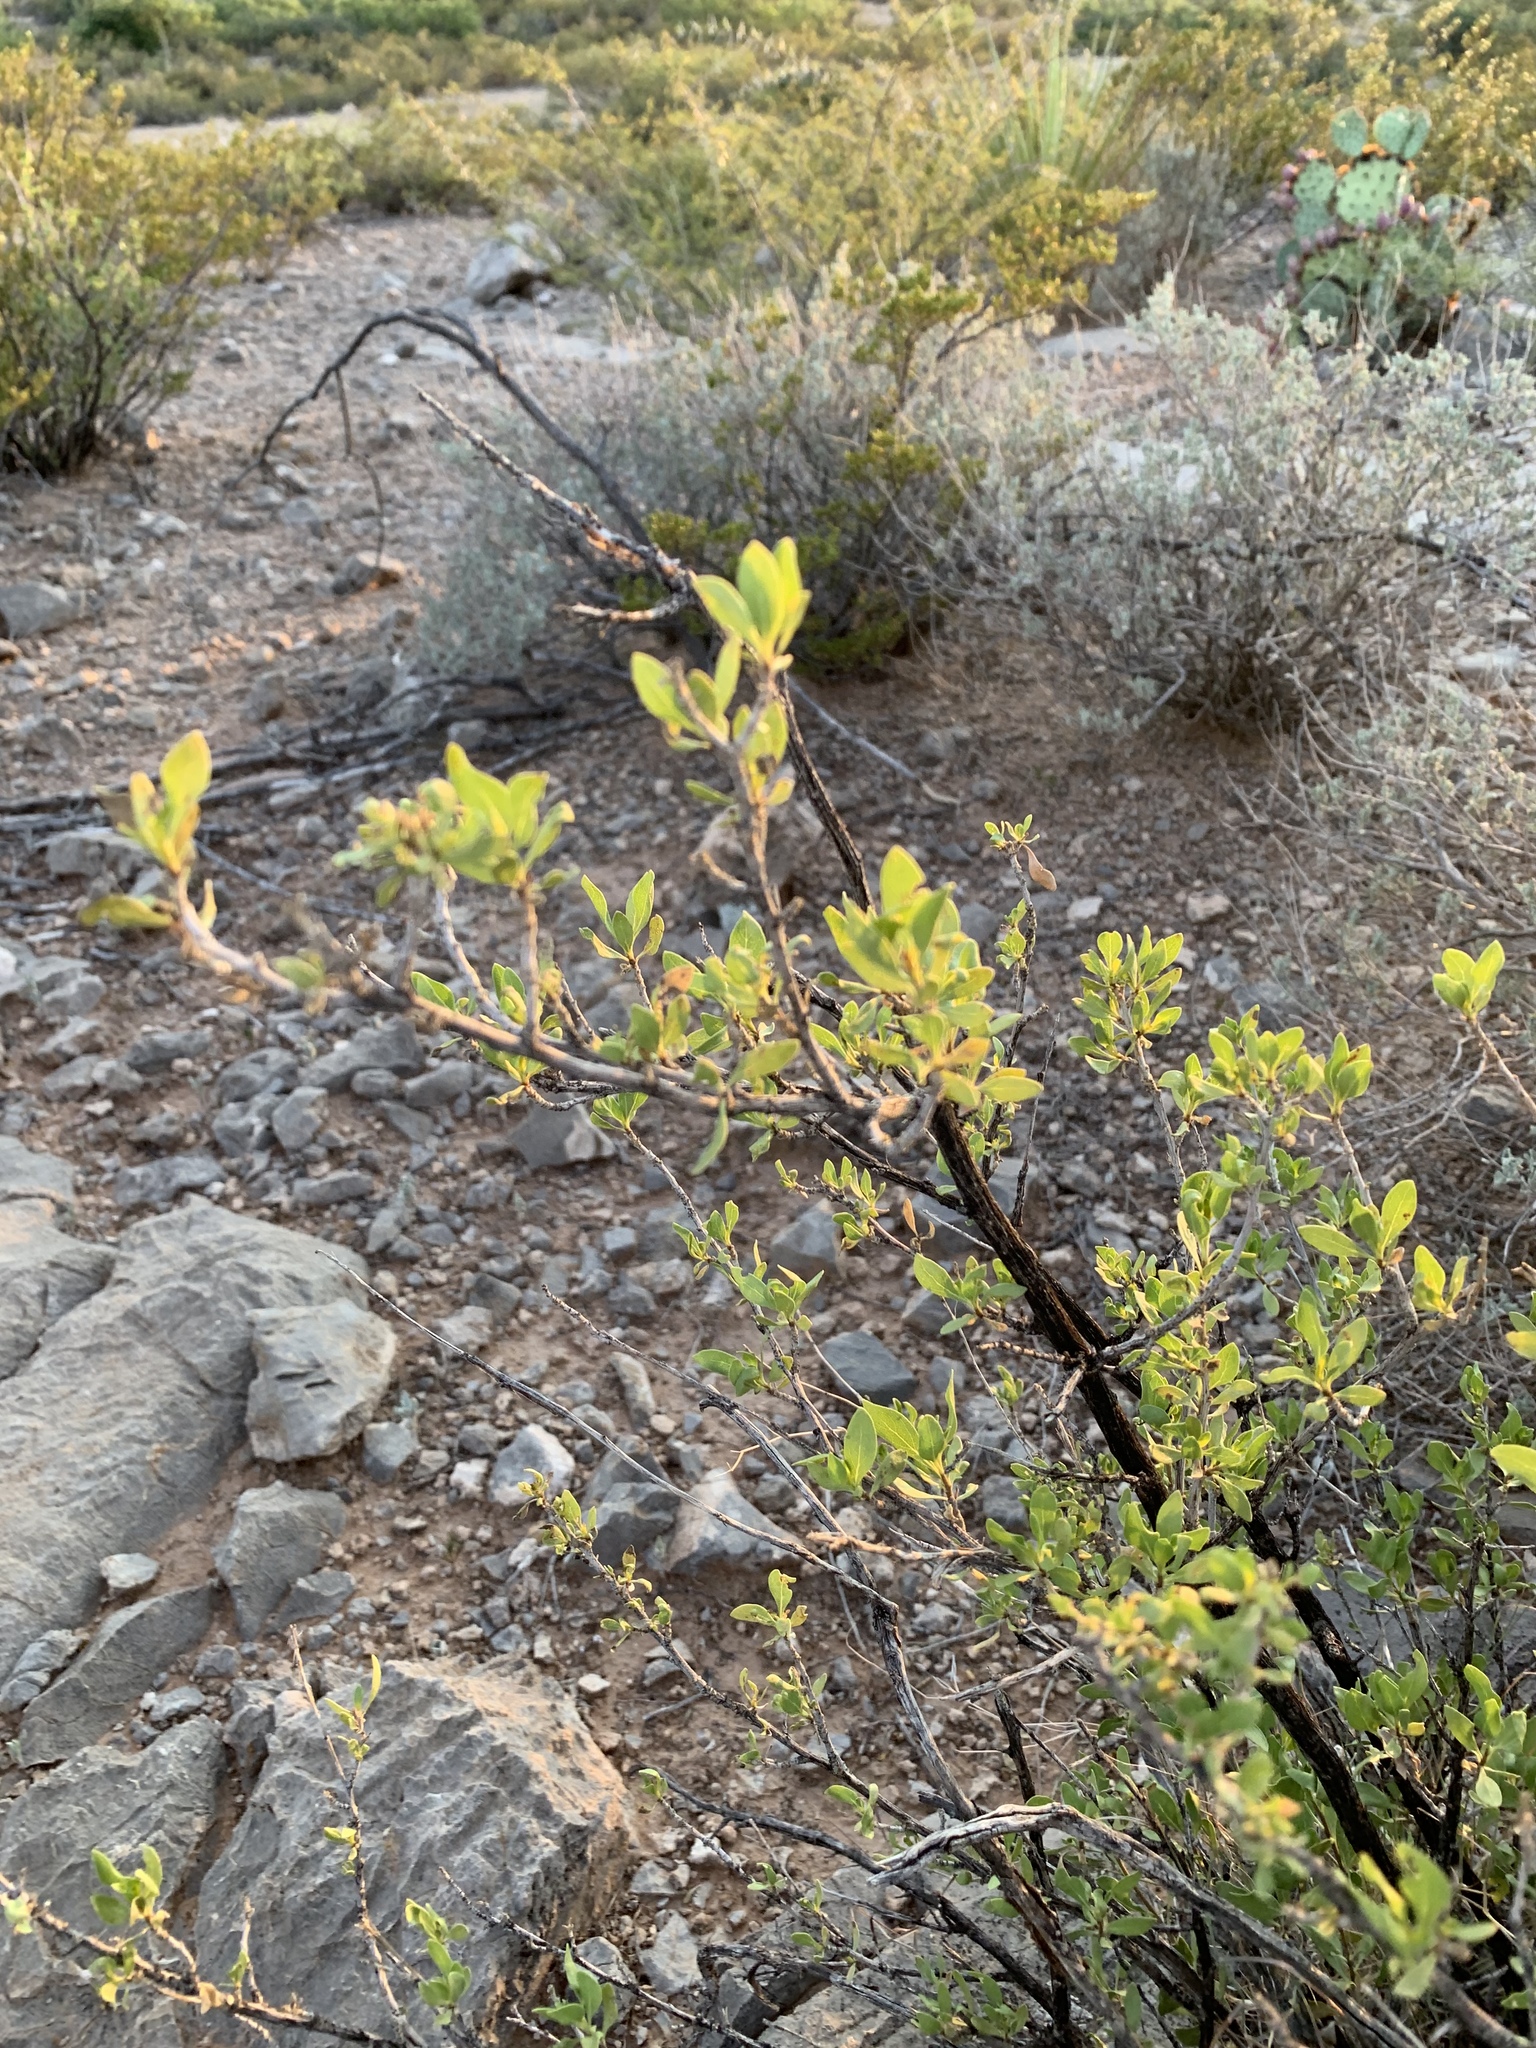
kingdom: Plantae
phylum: Tracheophyta
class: Magnoliopsida
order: Lamiales
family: Oleaceae
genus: Forestiera
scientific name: Forestiera pubescens
